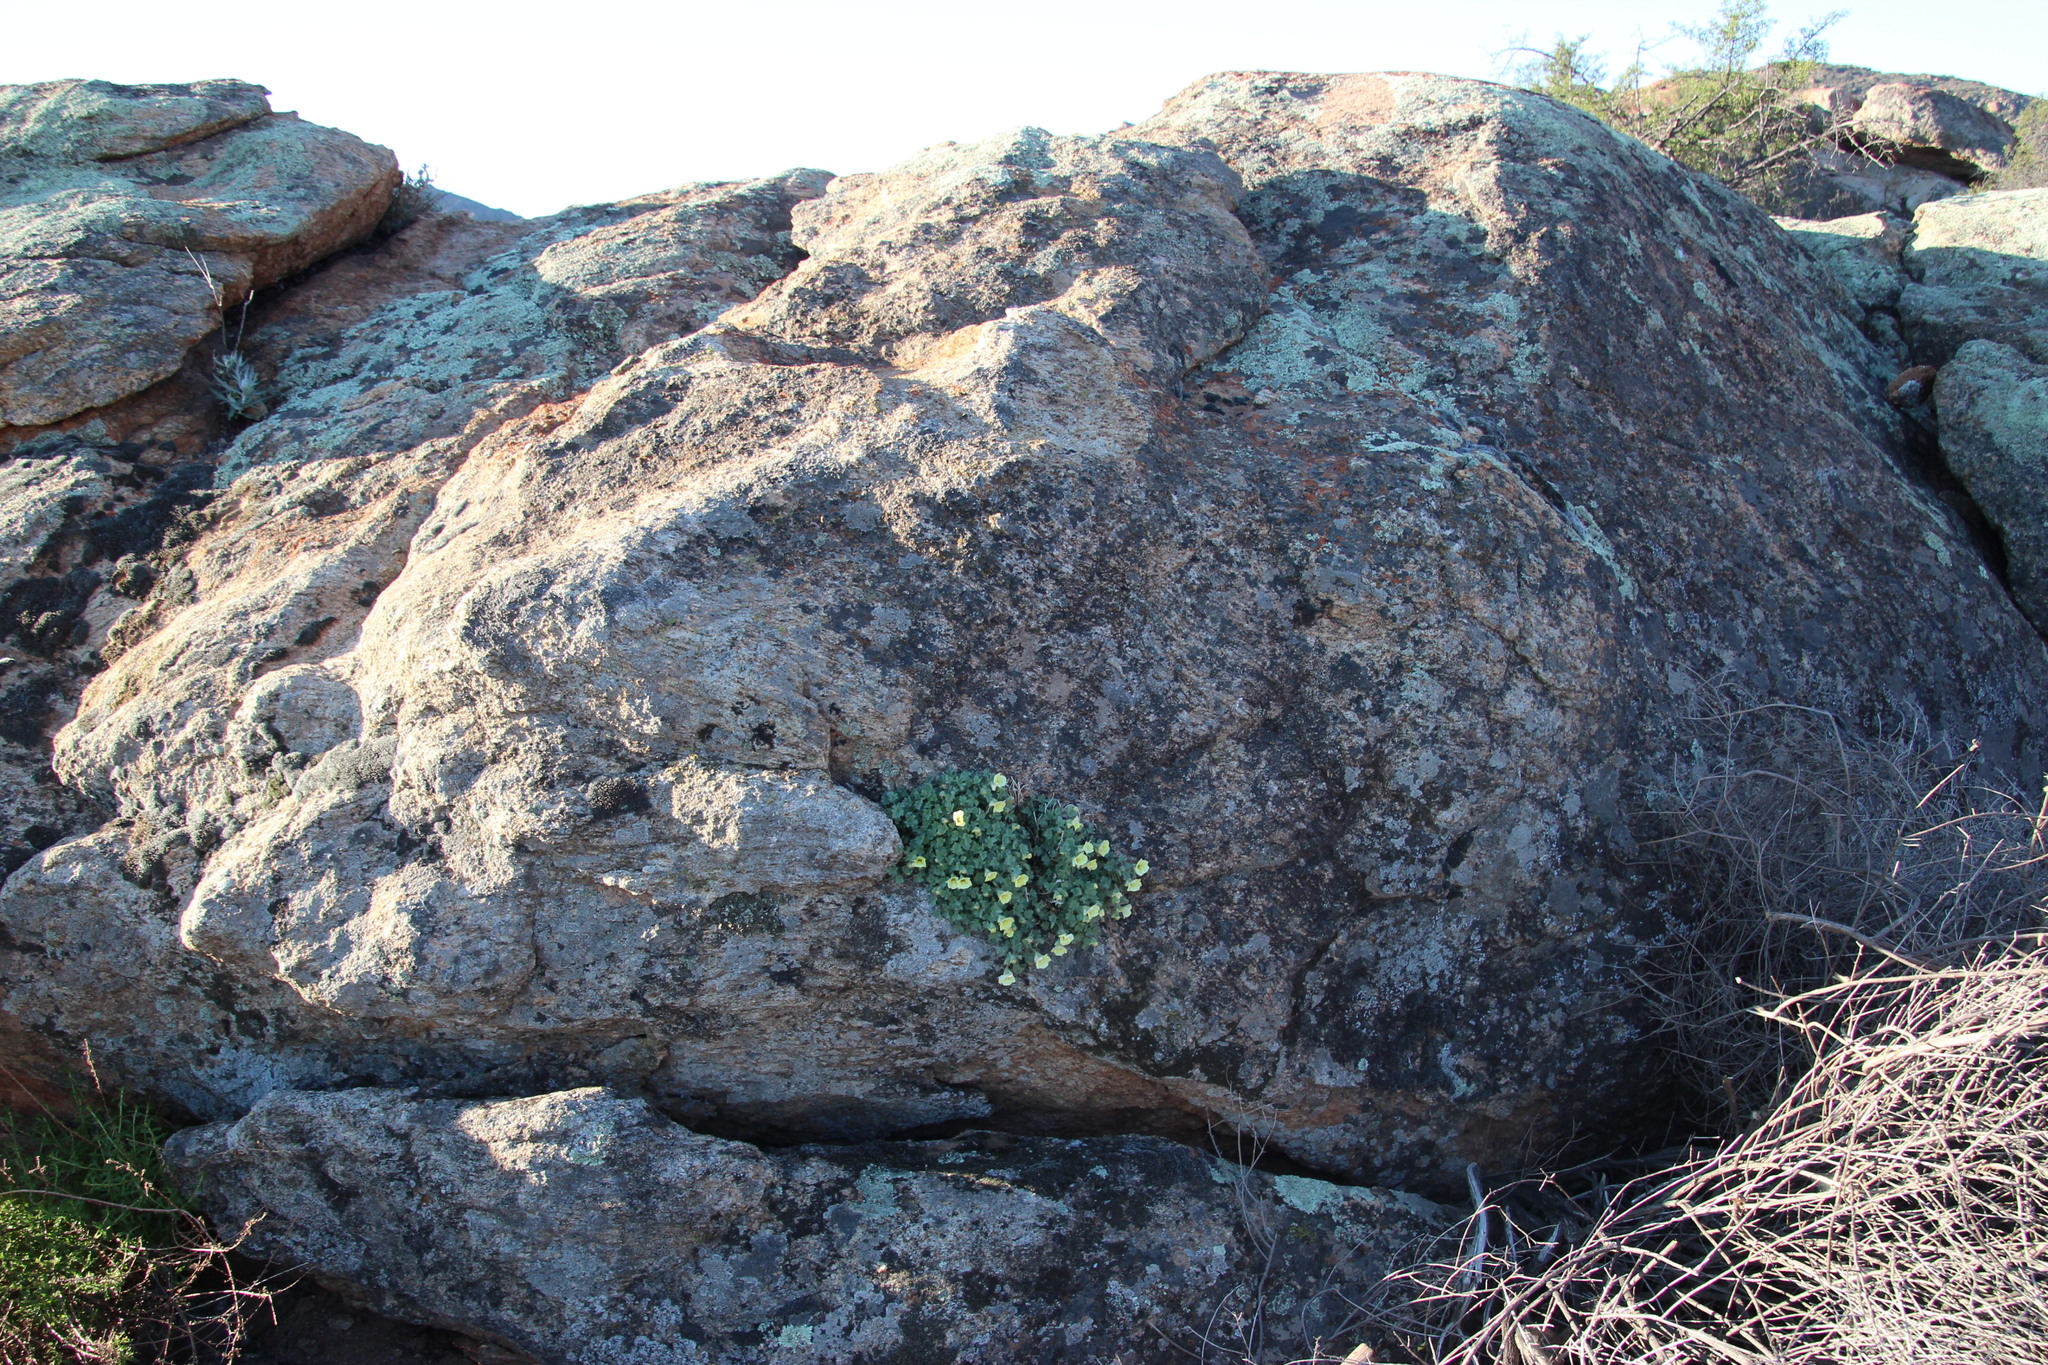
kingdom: Plantae
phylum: Tracheophyta
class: Magnoliopsida
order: Lamiales
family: Scrophulariaceae
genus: Colpias
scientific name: Colpias mollis
